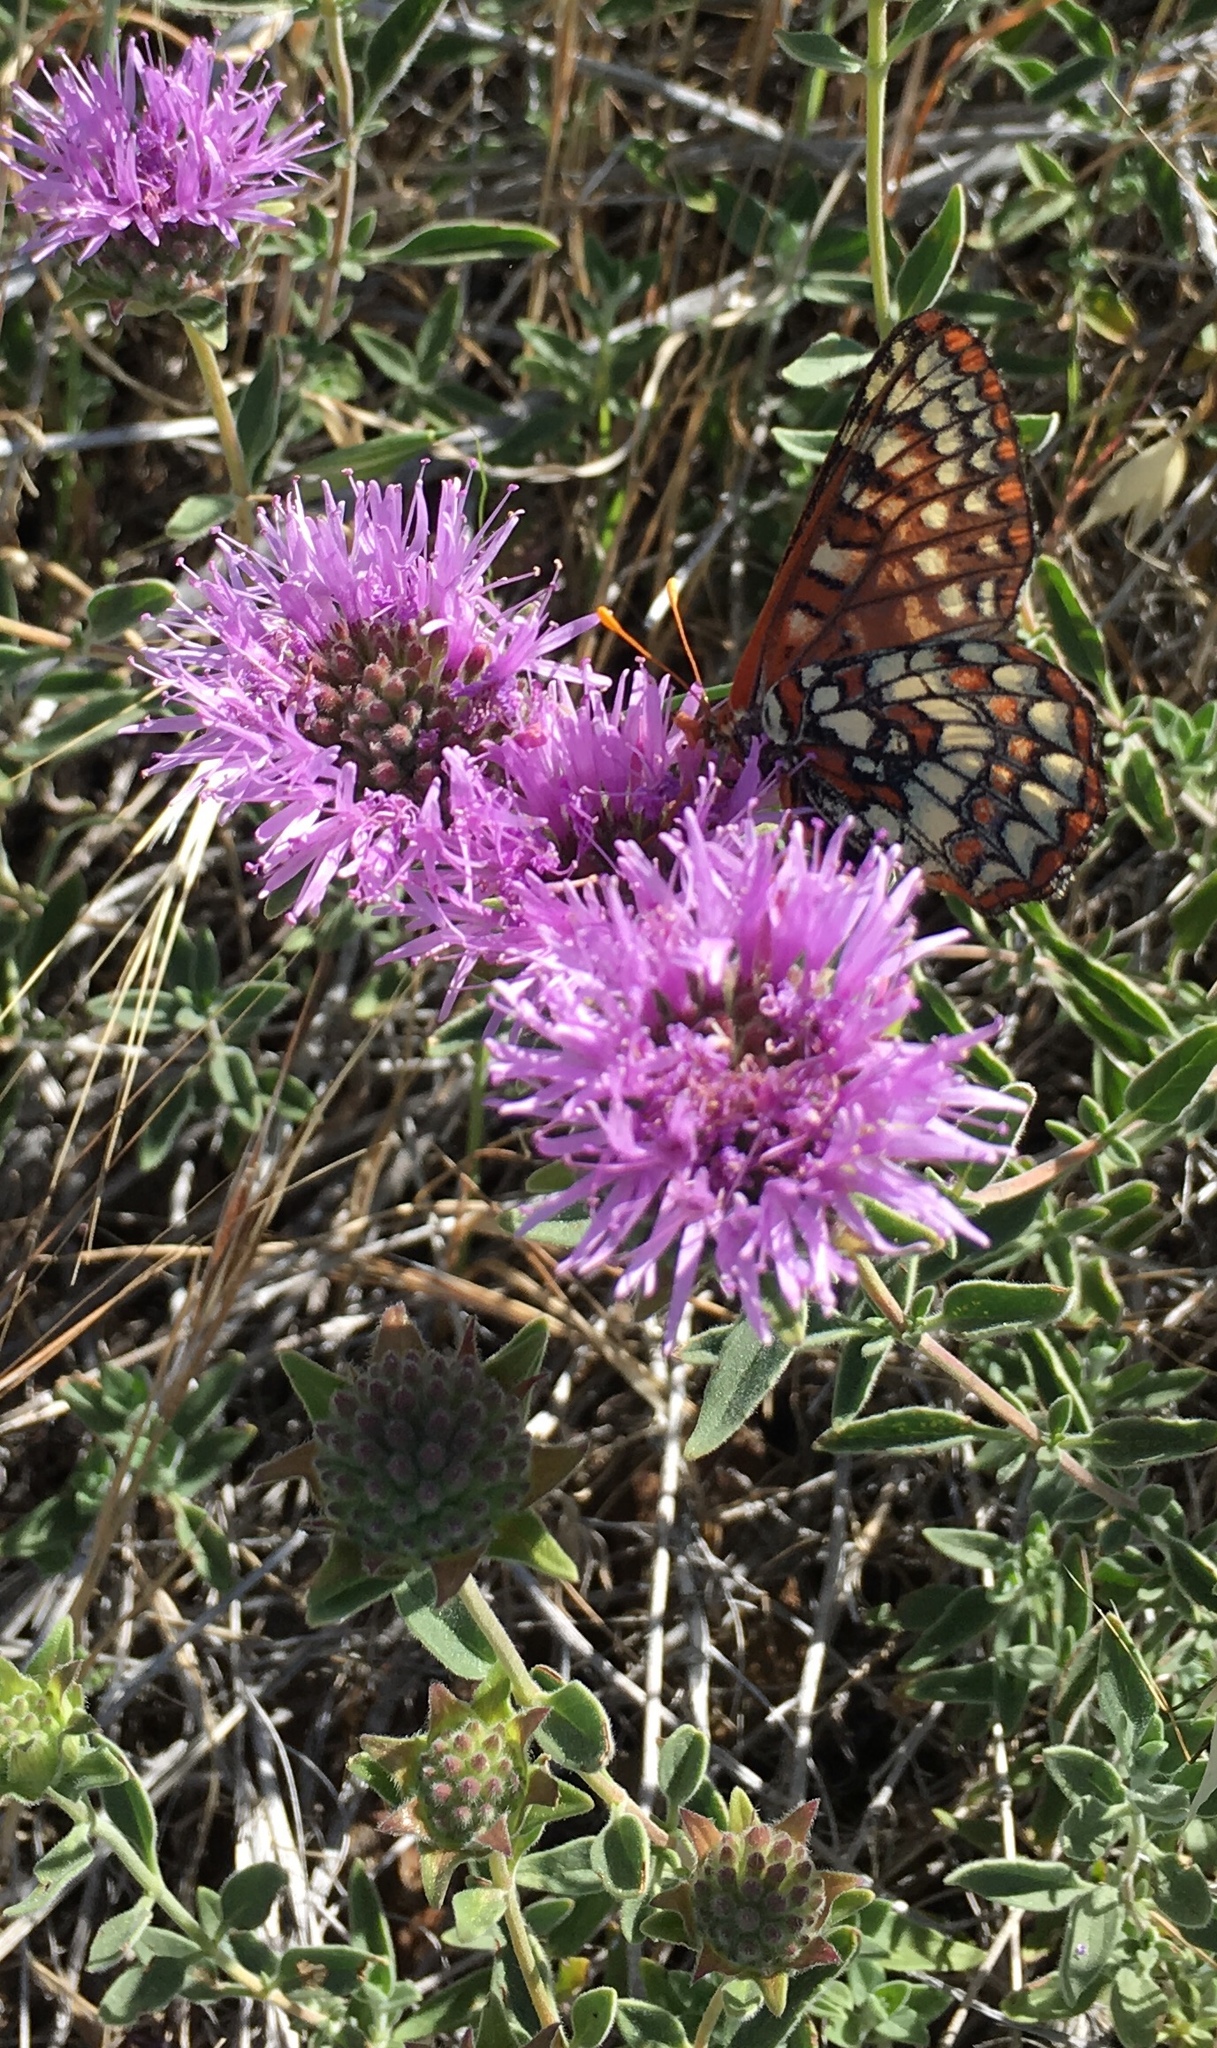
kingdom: Plantae
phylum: Tracheophyta
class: Magnoliopsida
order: Lamiales
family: Lamiaceae
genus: Monardella
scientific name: Monardella odoratissima
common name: Pacific monardella
